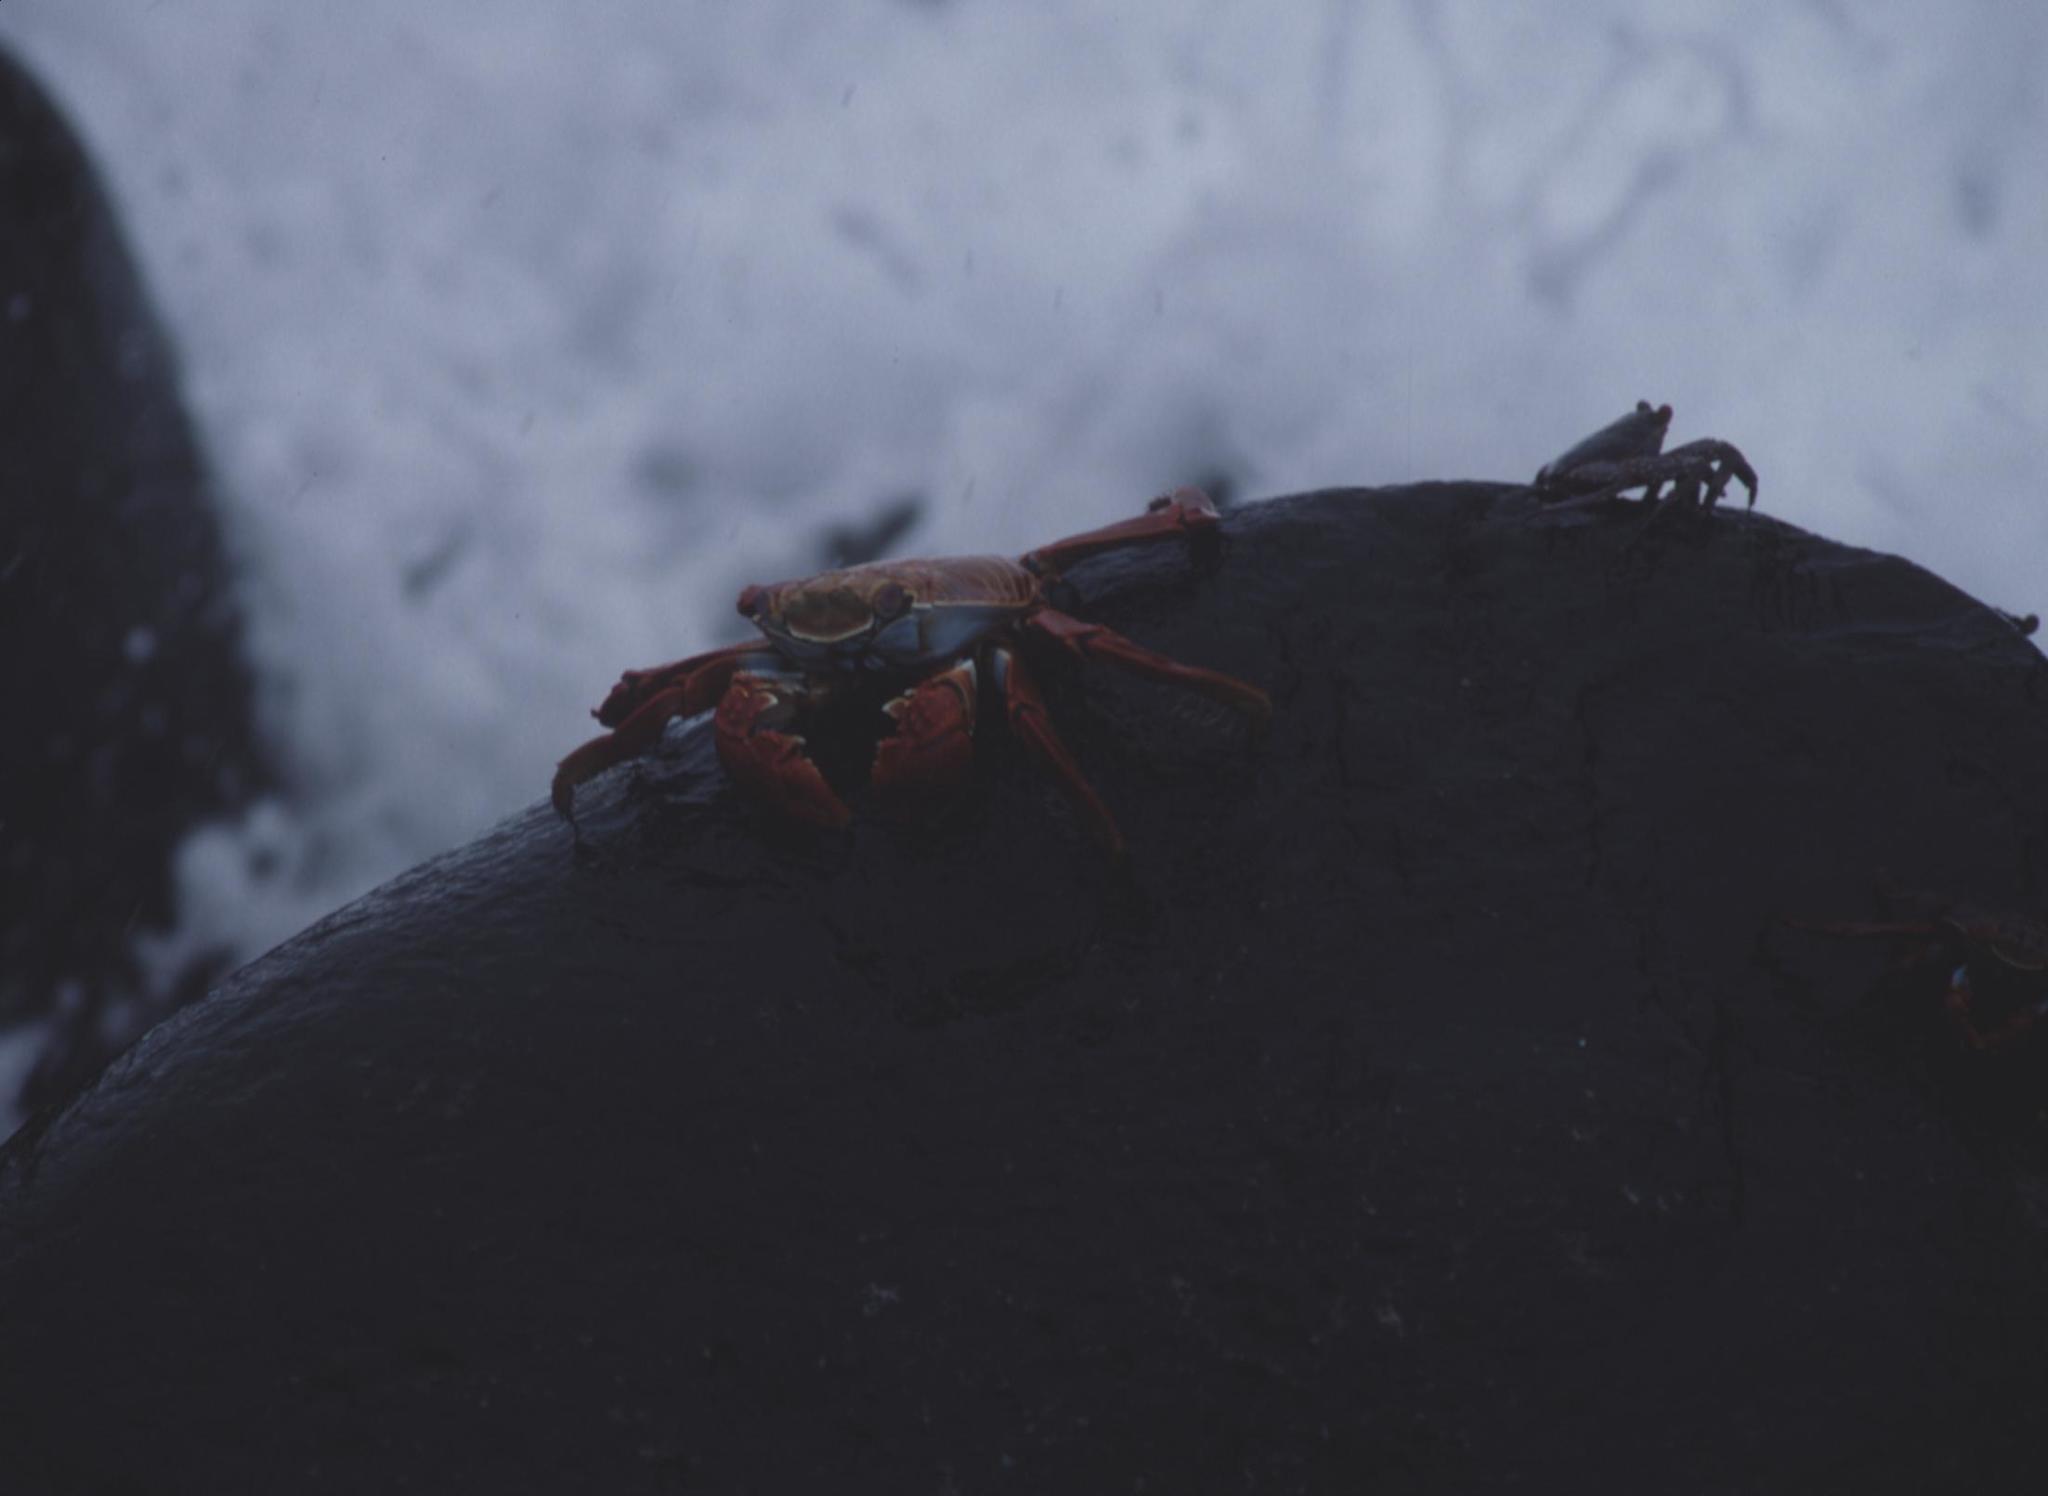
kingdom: Animalia
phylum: Arthropoda
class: Malacostraca
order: Decapoda
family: Grapsidae
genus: Grapsus
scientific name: Grapsus grapsus
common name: Sally lightfoot
